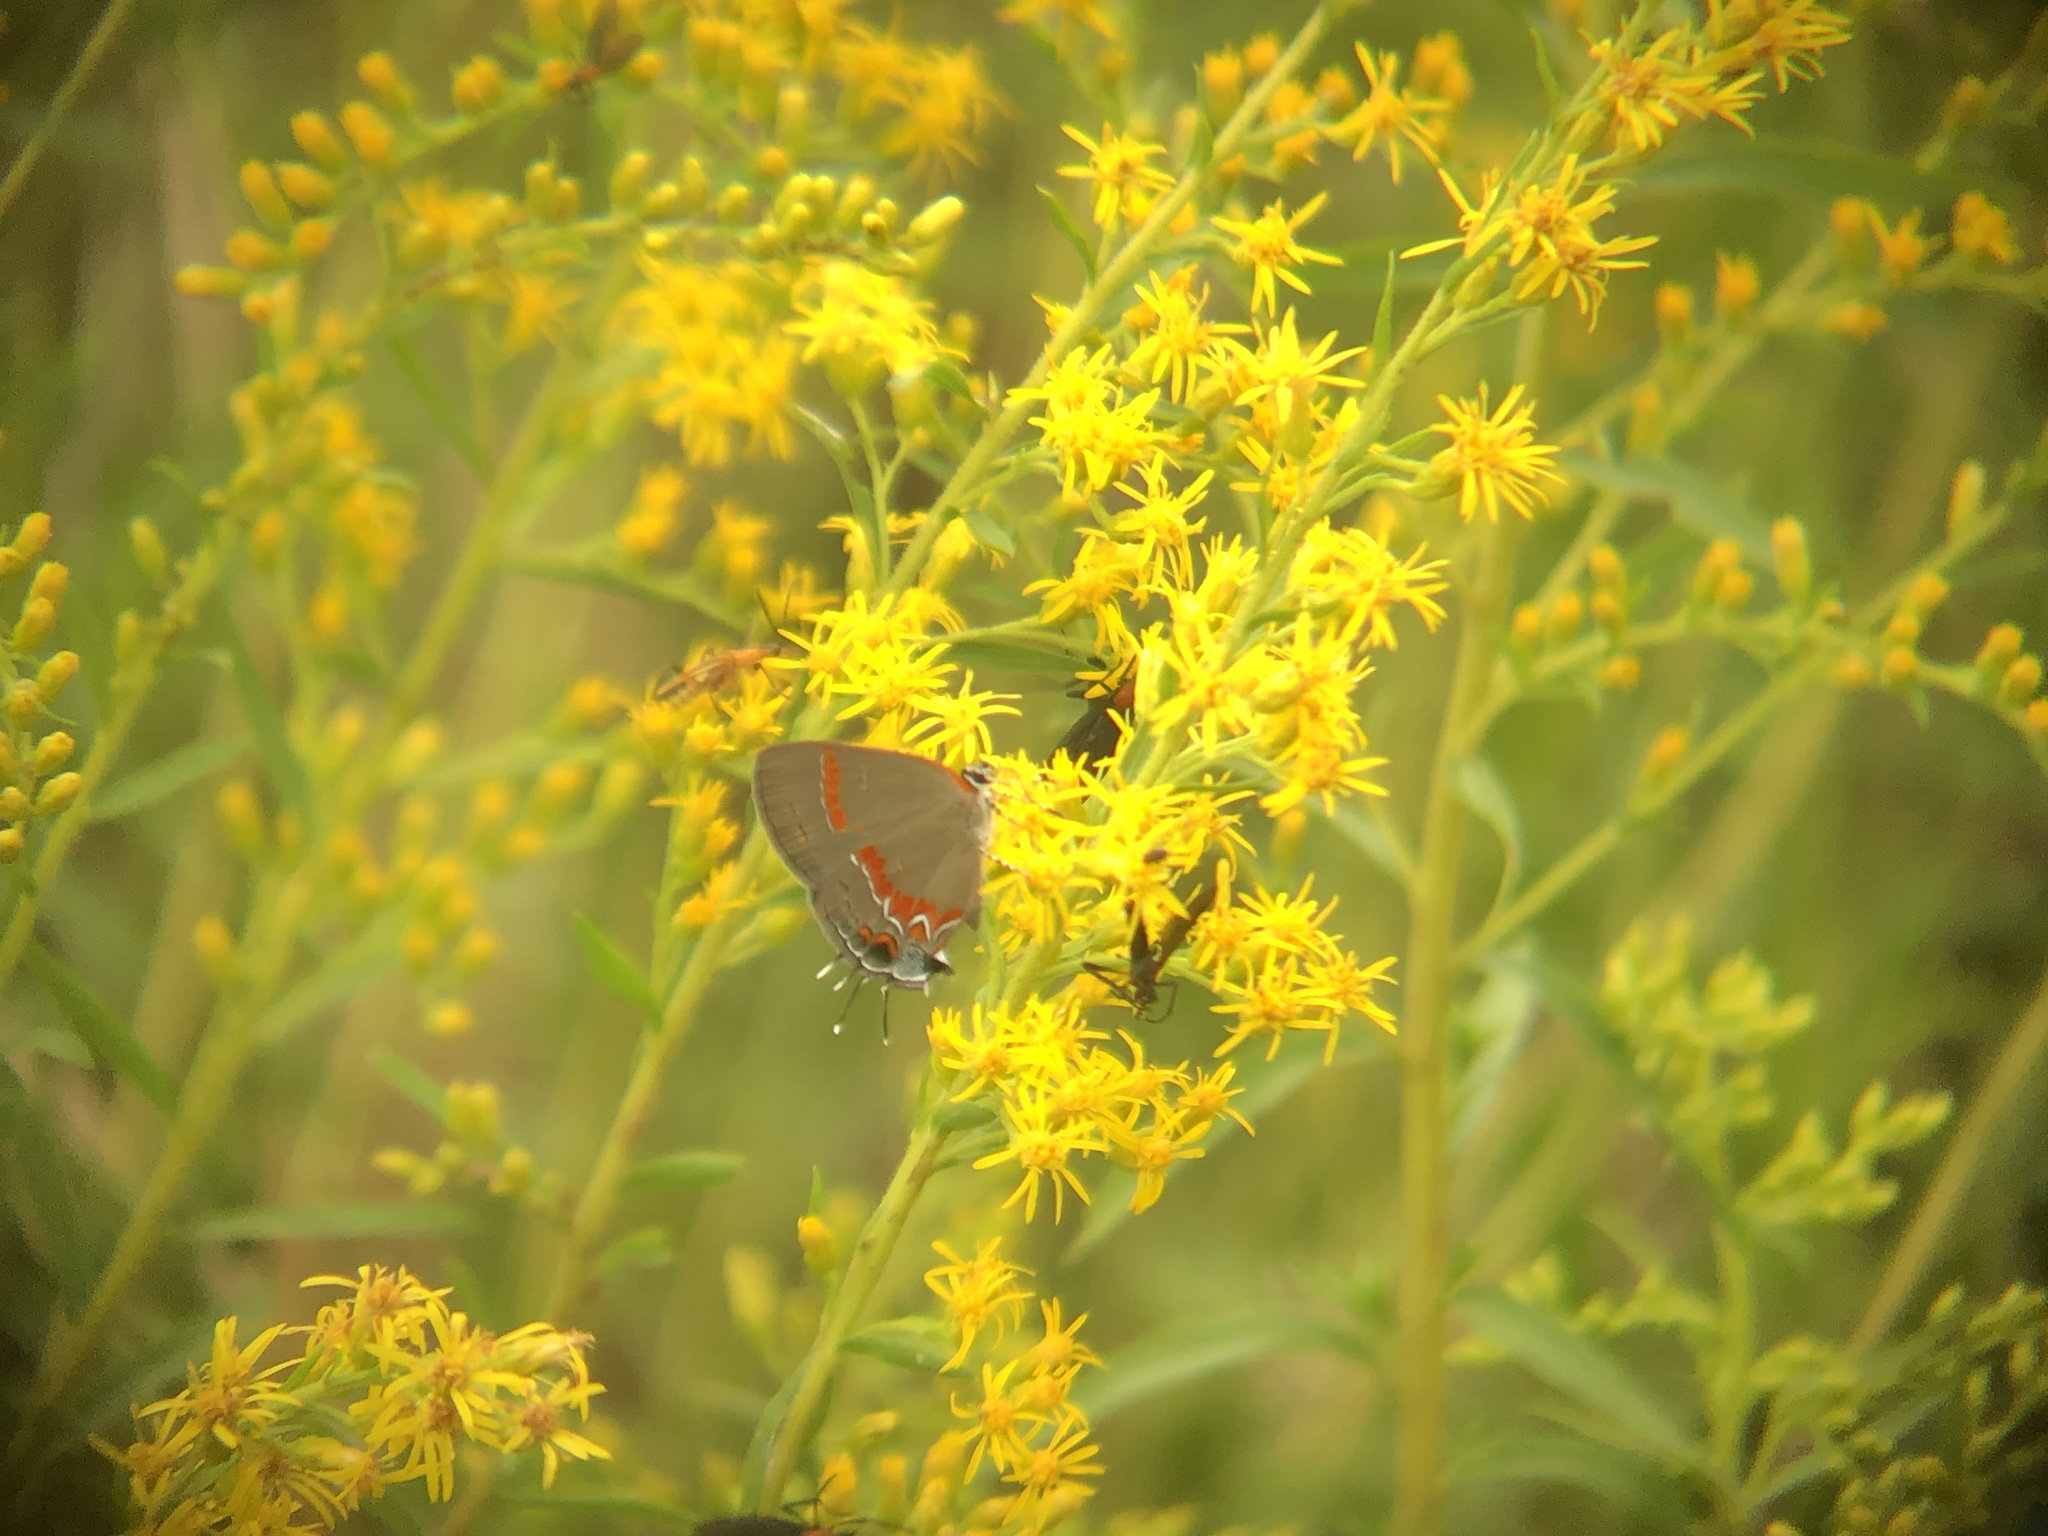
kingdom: Animalia
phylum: Arthropoda
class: Insecta
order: Lepidoptera
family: Lycaenidae
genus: Calycopis
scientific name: Calycopis cecrops
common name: Red-banded hairstreak
